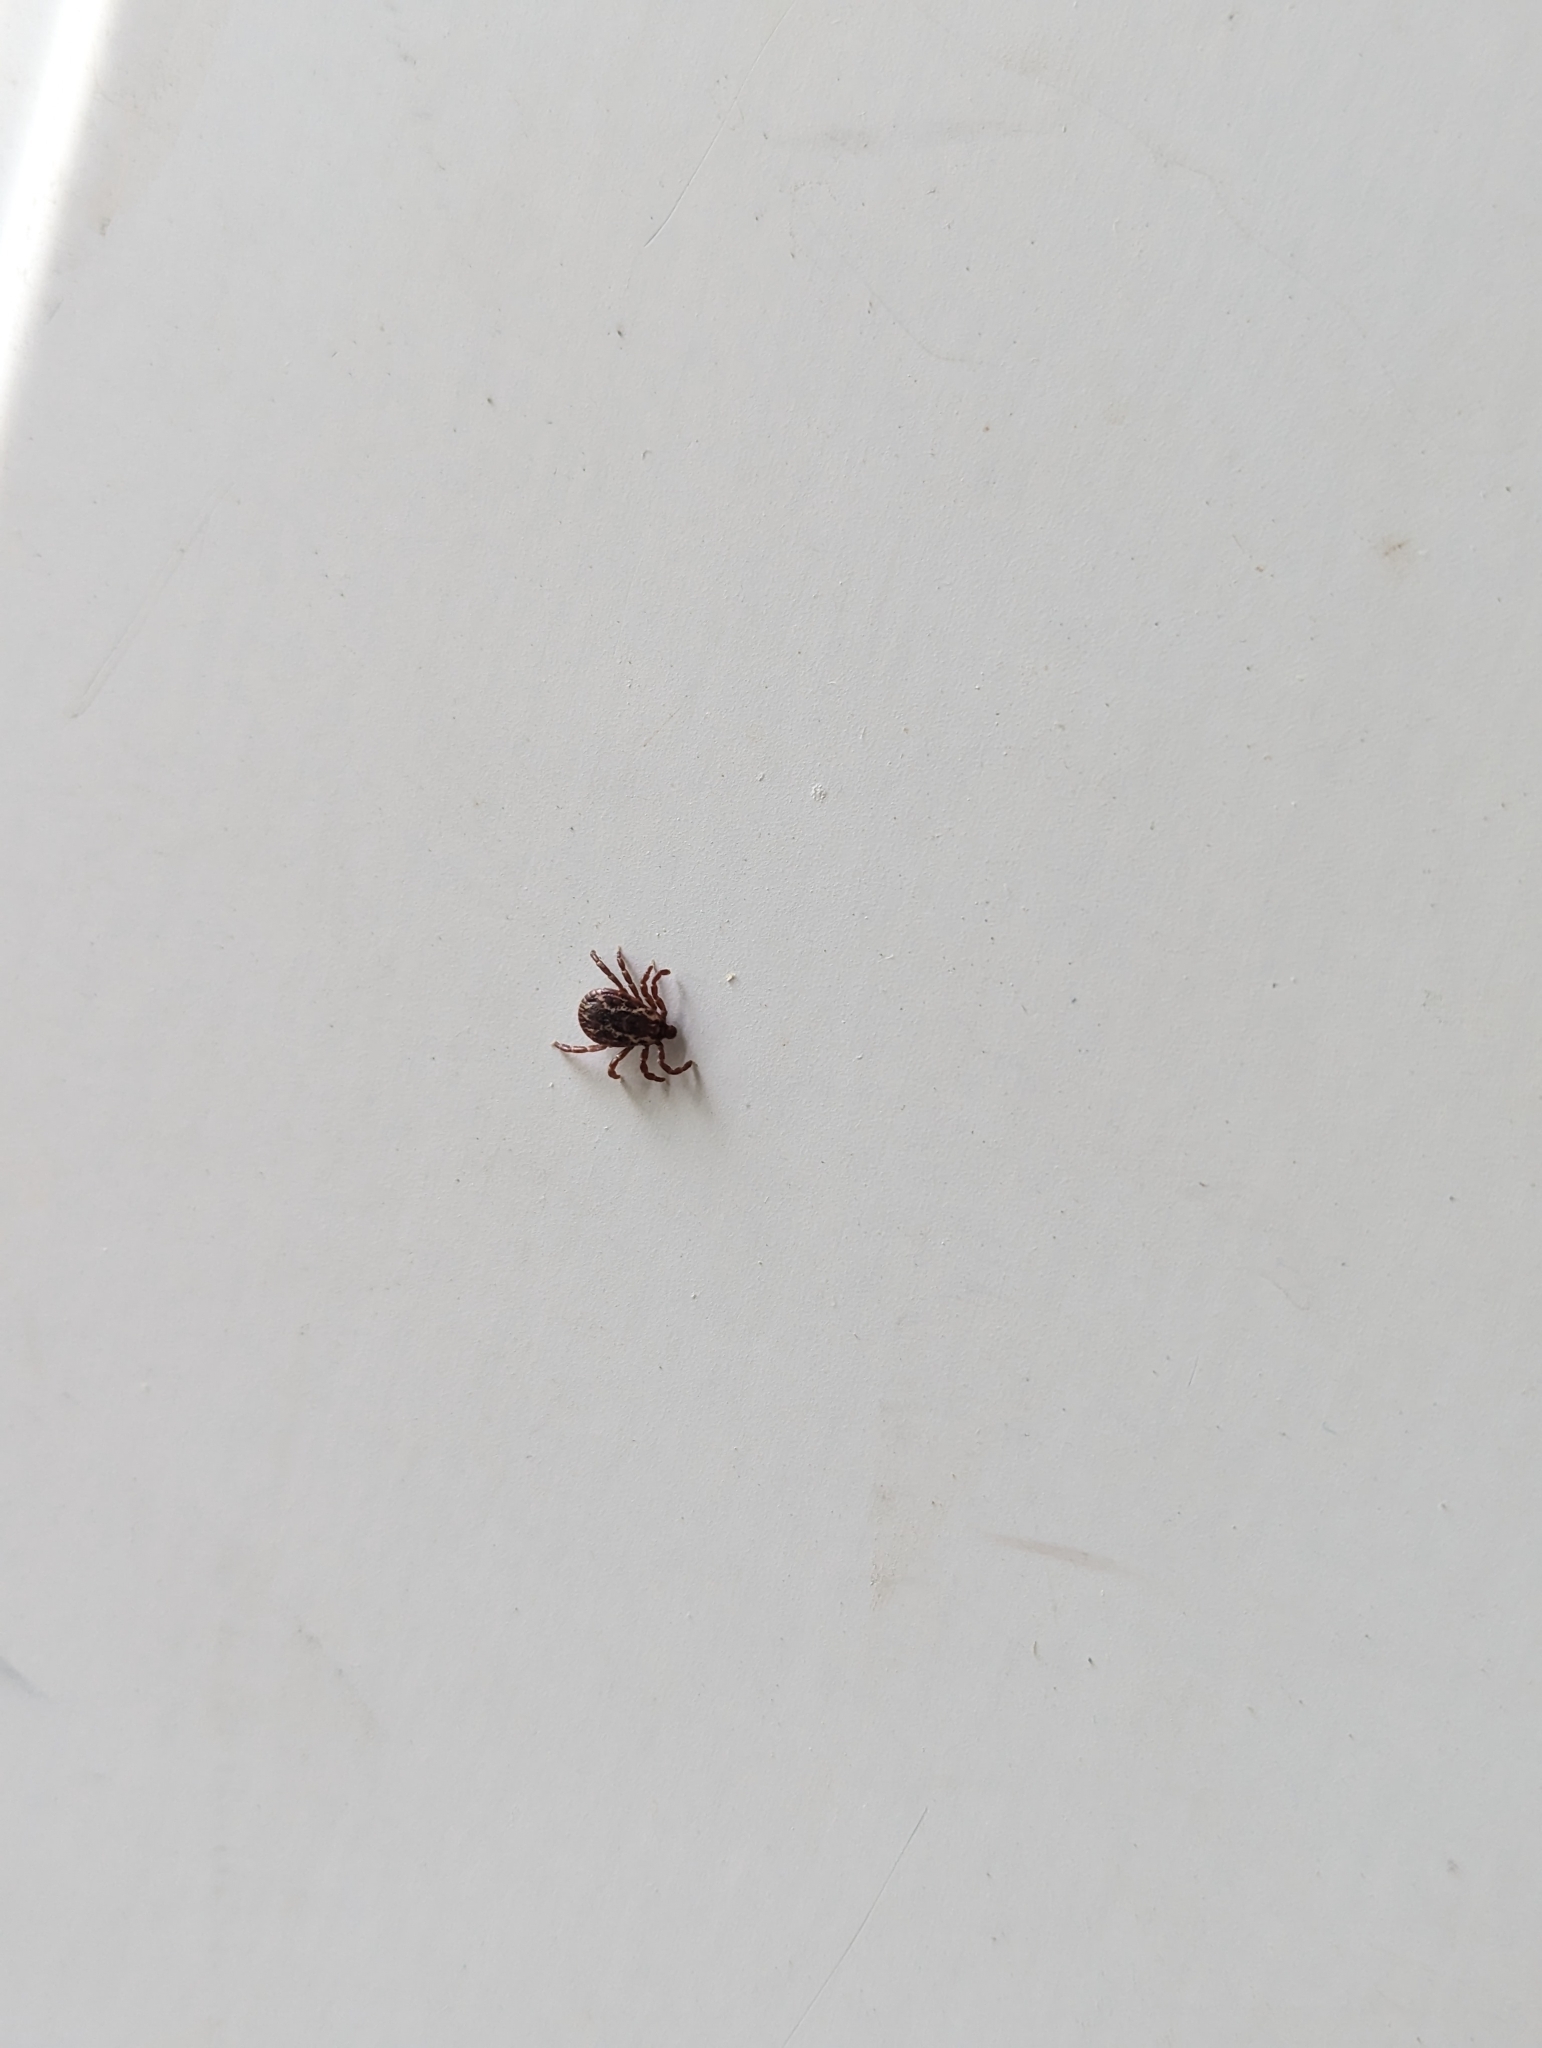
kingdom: Animalia
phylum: Arthropoda
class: Arachnida
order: Ixodida
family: Ixodidae
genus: Dermacentor
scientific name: Dermacentor variabilis
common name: American dog tick
